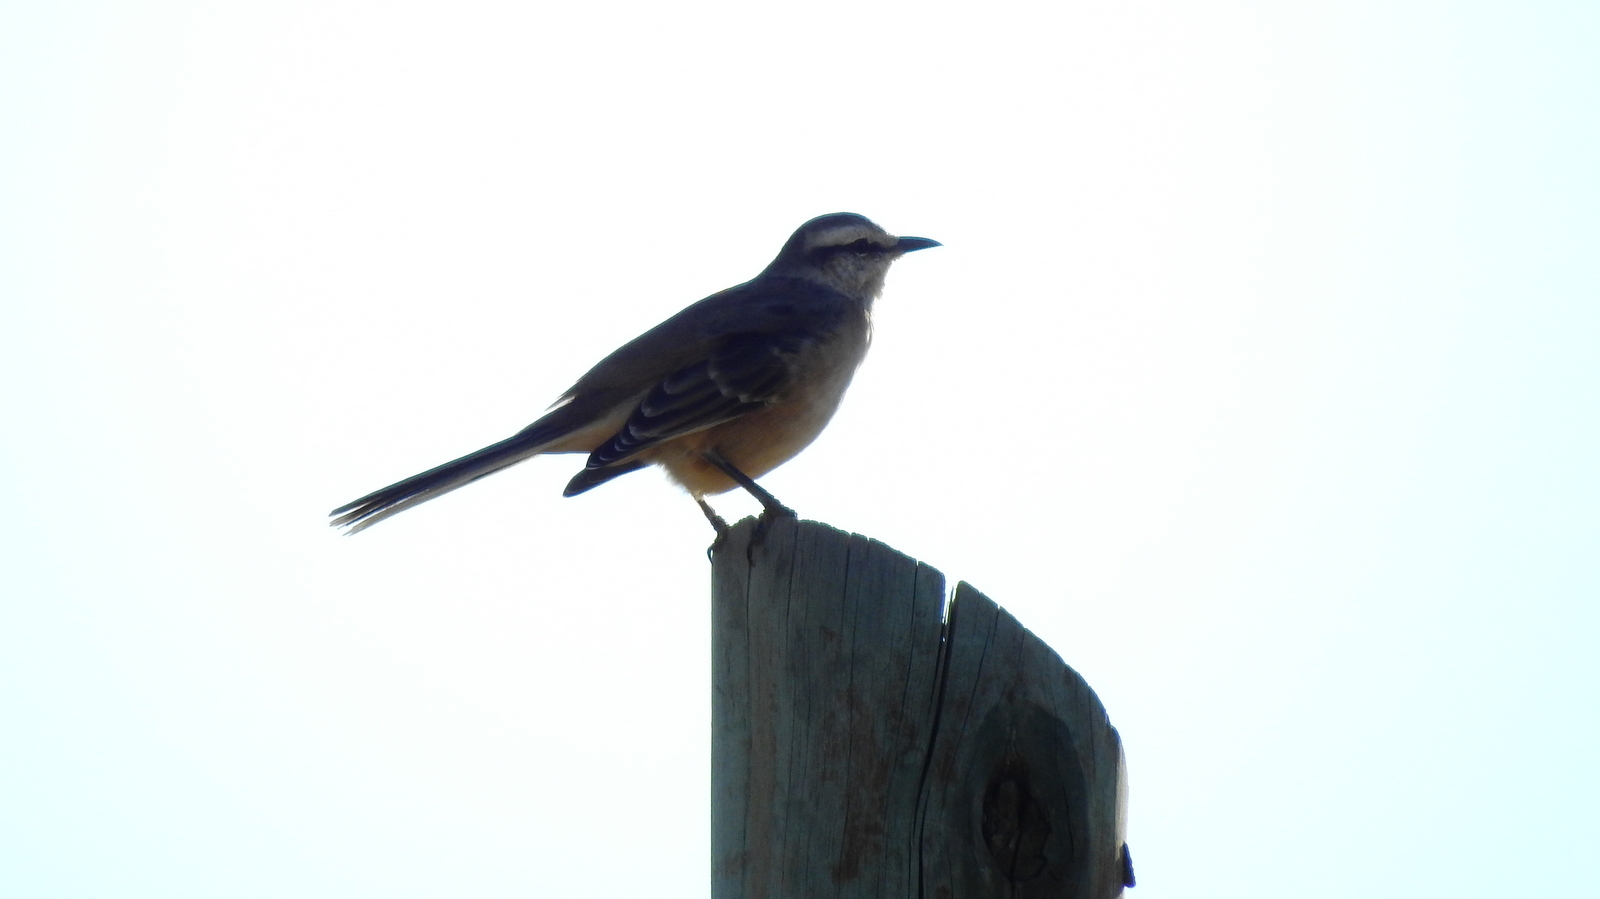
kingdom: Animalia
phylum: Chordata
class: Aves
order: Passeriformes
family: Mimidae
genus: Mimus
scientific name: Mimus saturninus
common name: Chalk-browed mockingbird
